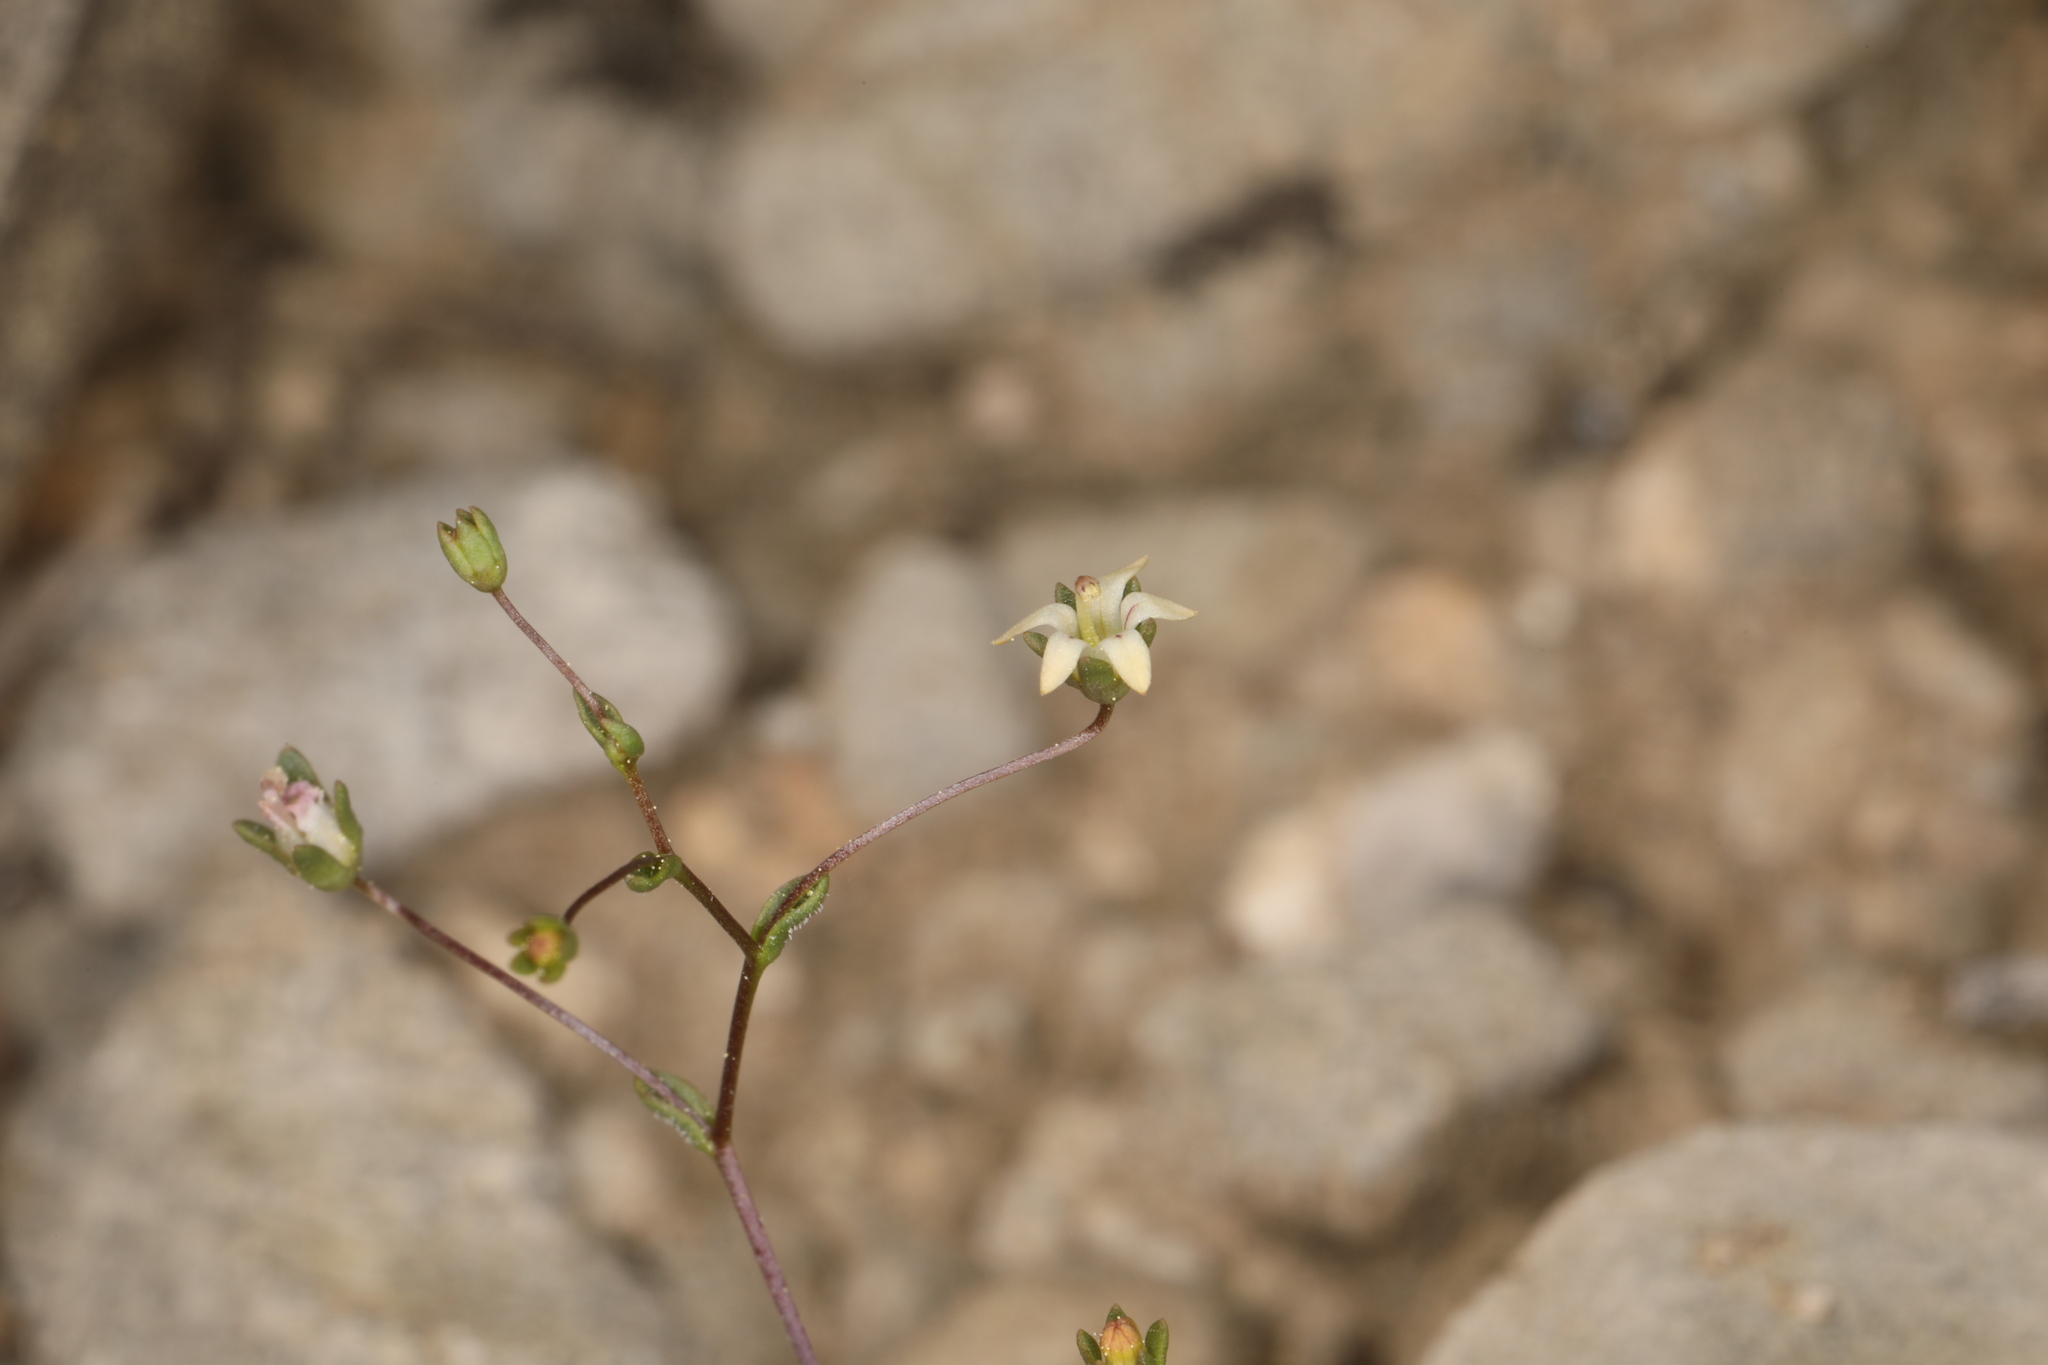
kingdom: Plantae
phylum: Tracheophyta
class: Magnoliopsida
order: Asterales
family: Campanulaceae
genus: Nemacladus
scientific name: Nemacladus inyoensis
